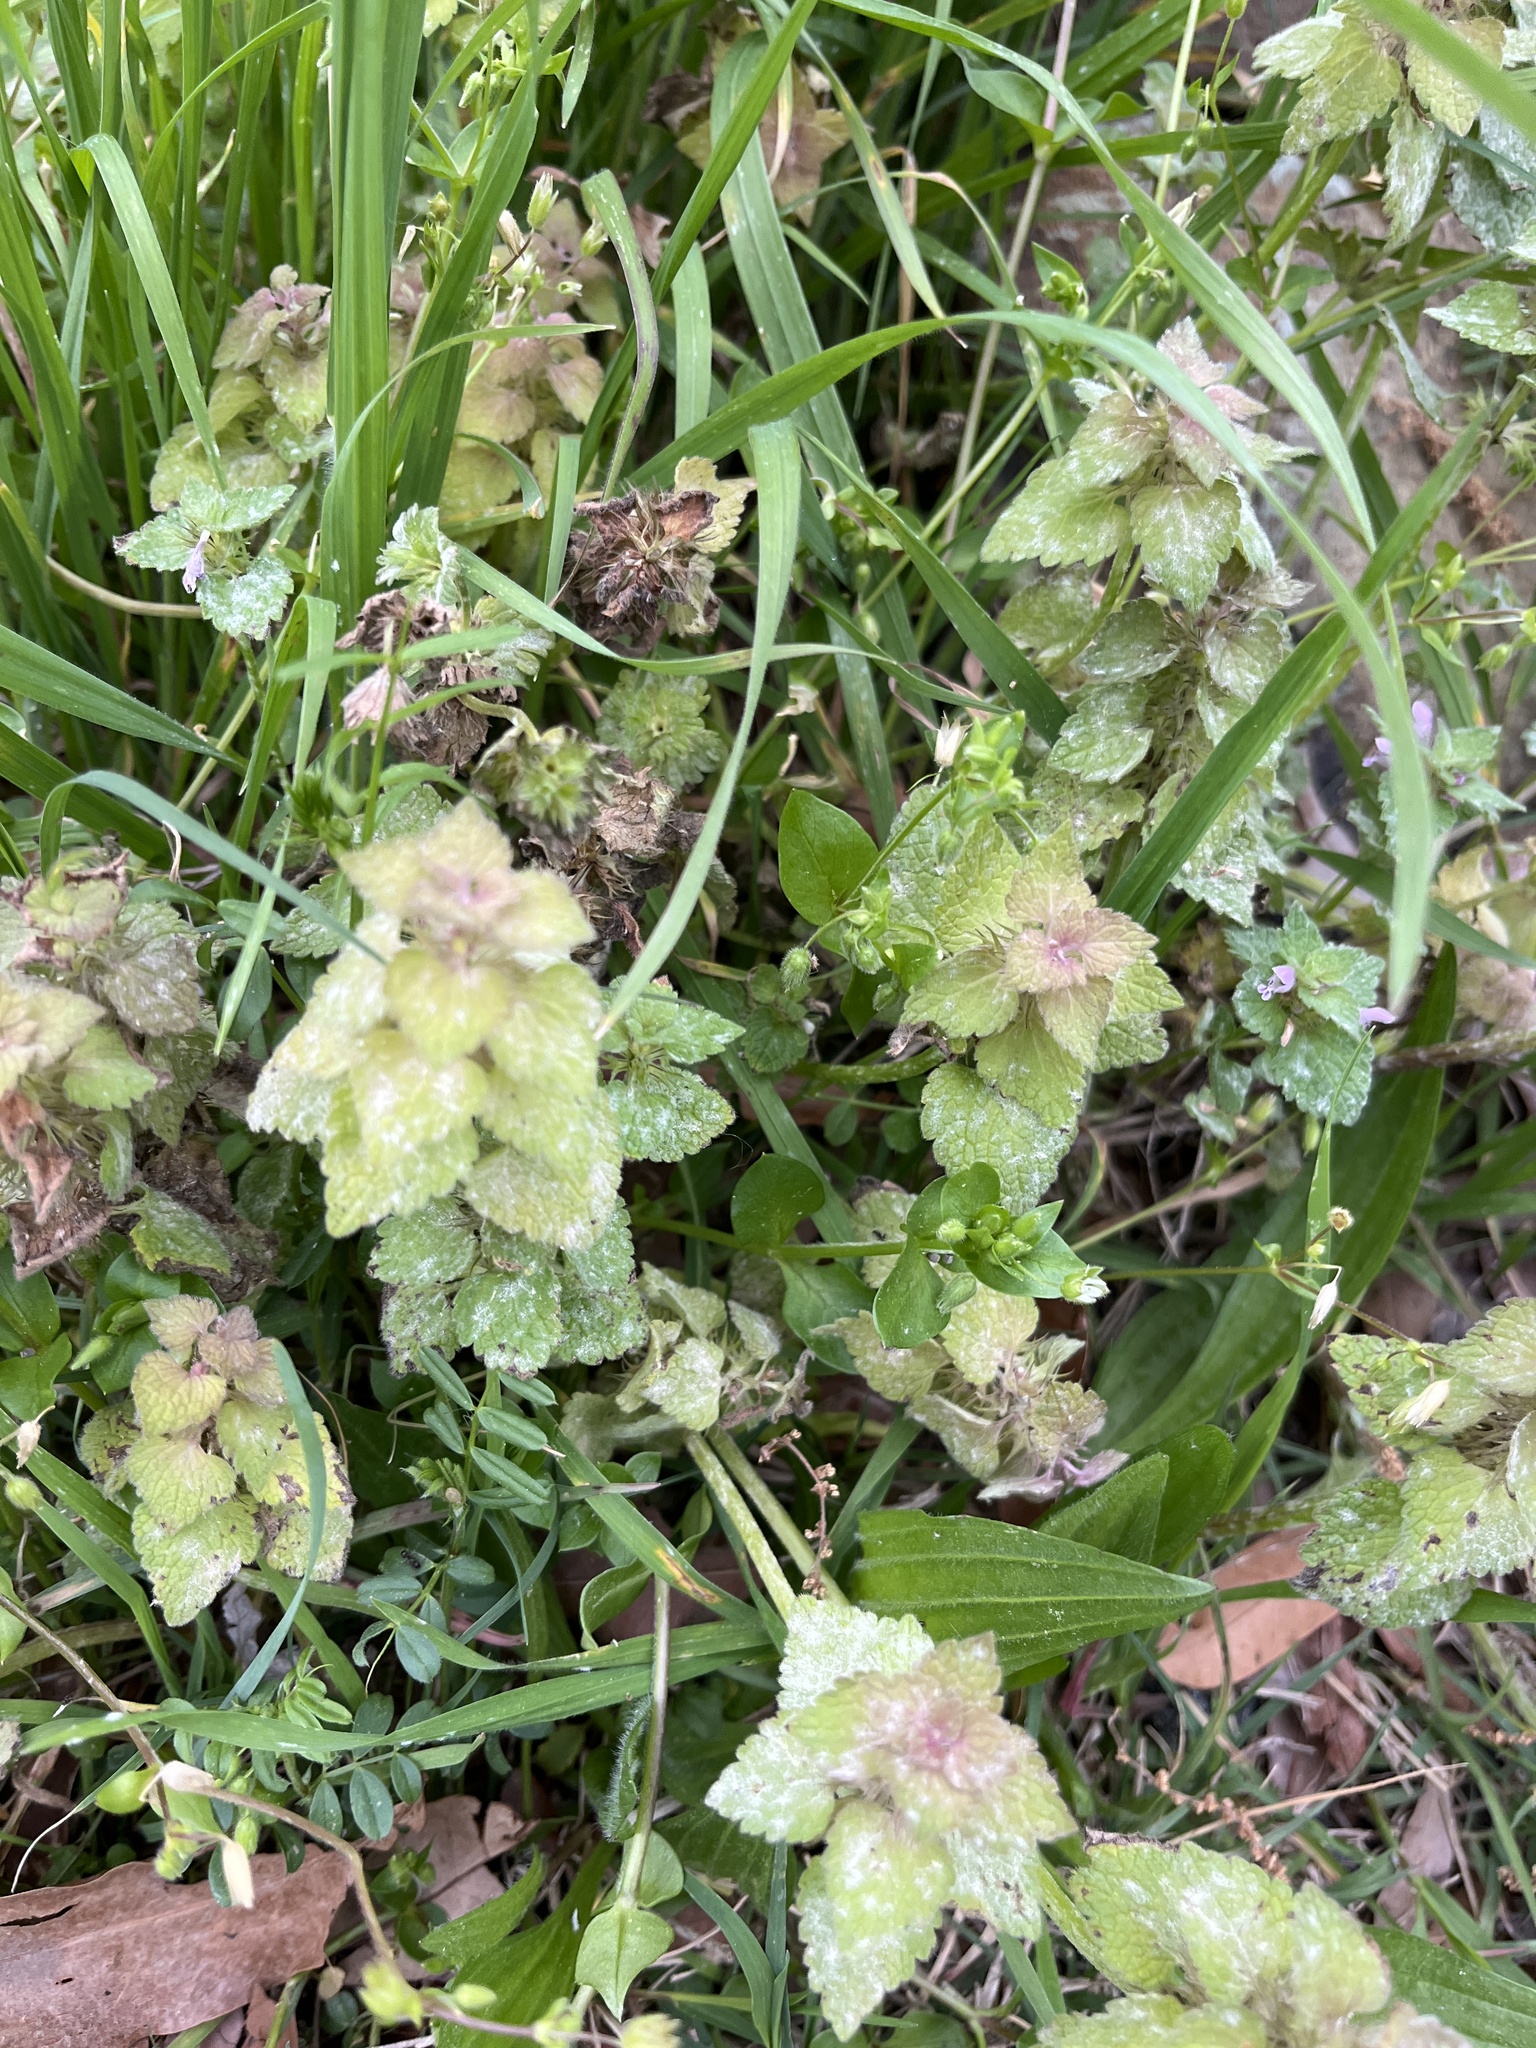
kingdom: Plantae
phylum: Tracheophyta
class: Magnoliopsida
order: Lamiales
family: Lamiaceae
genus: Lamium
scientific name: Lamium purpureum
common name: Red dead-nettle
